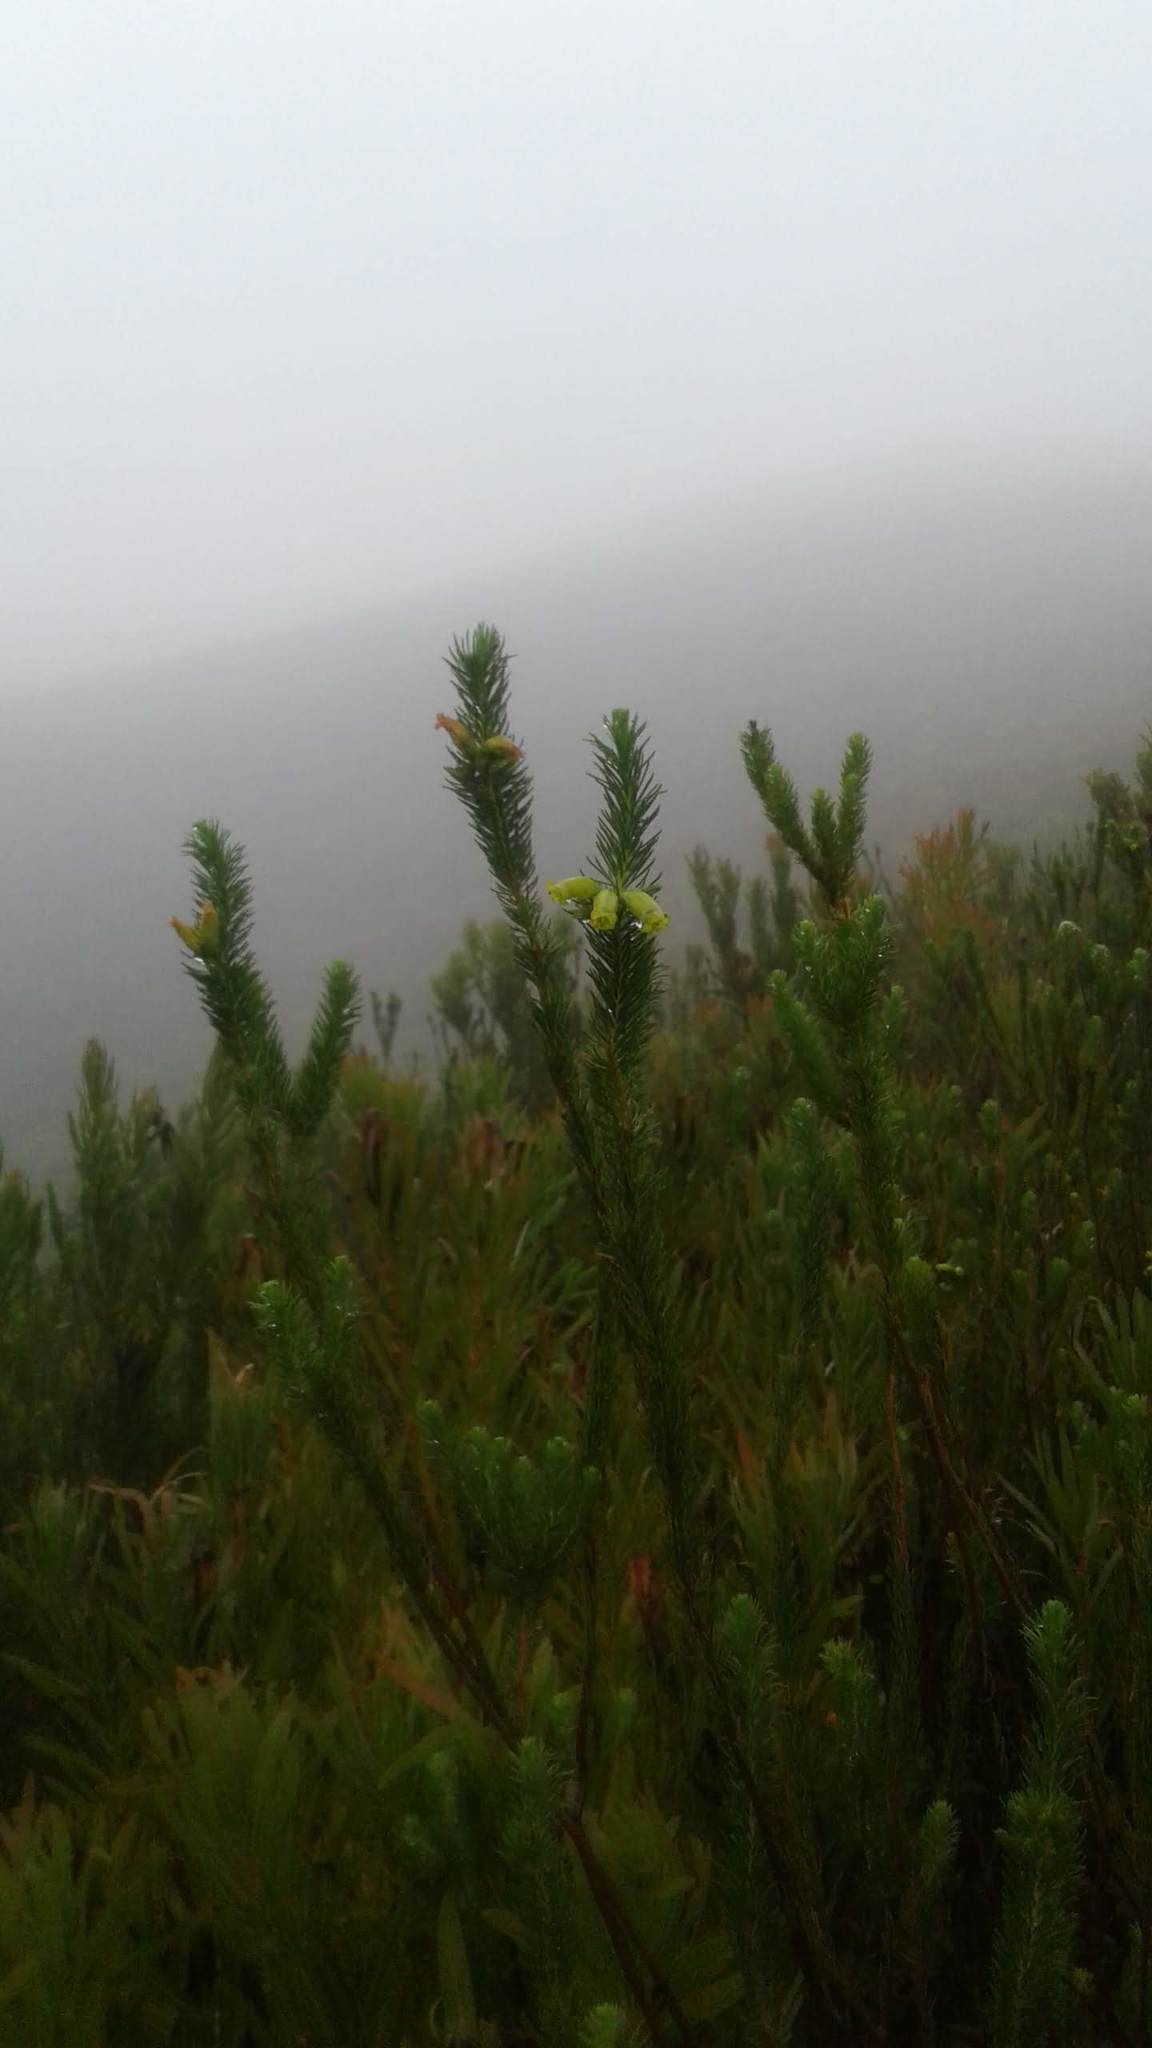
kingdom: Plantae
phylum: Tracheophyta
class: Magnoliopsida
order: Ericales
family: Ericaceae
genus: Erica
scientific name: Erica viscaria
